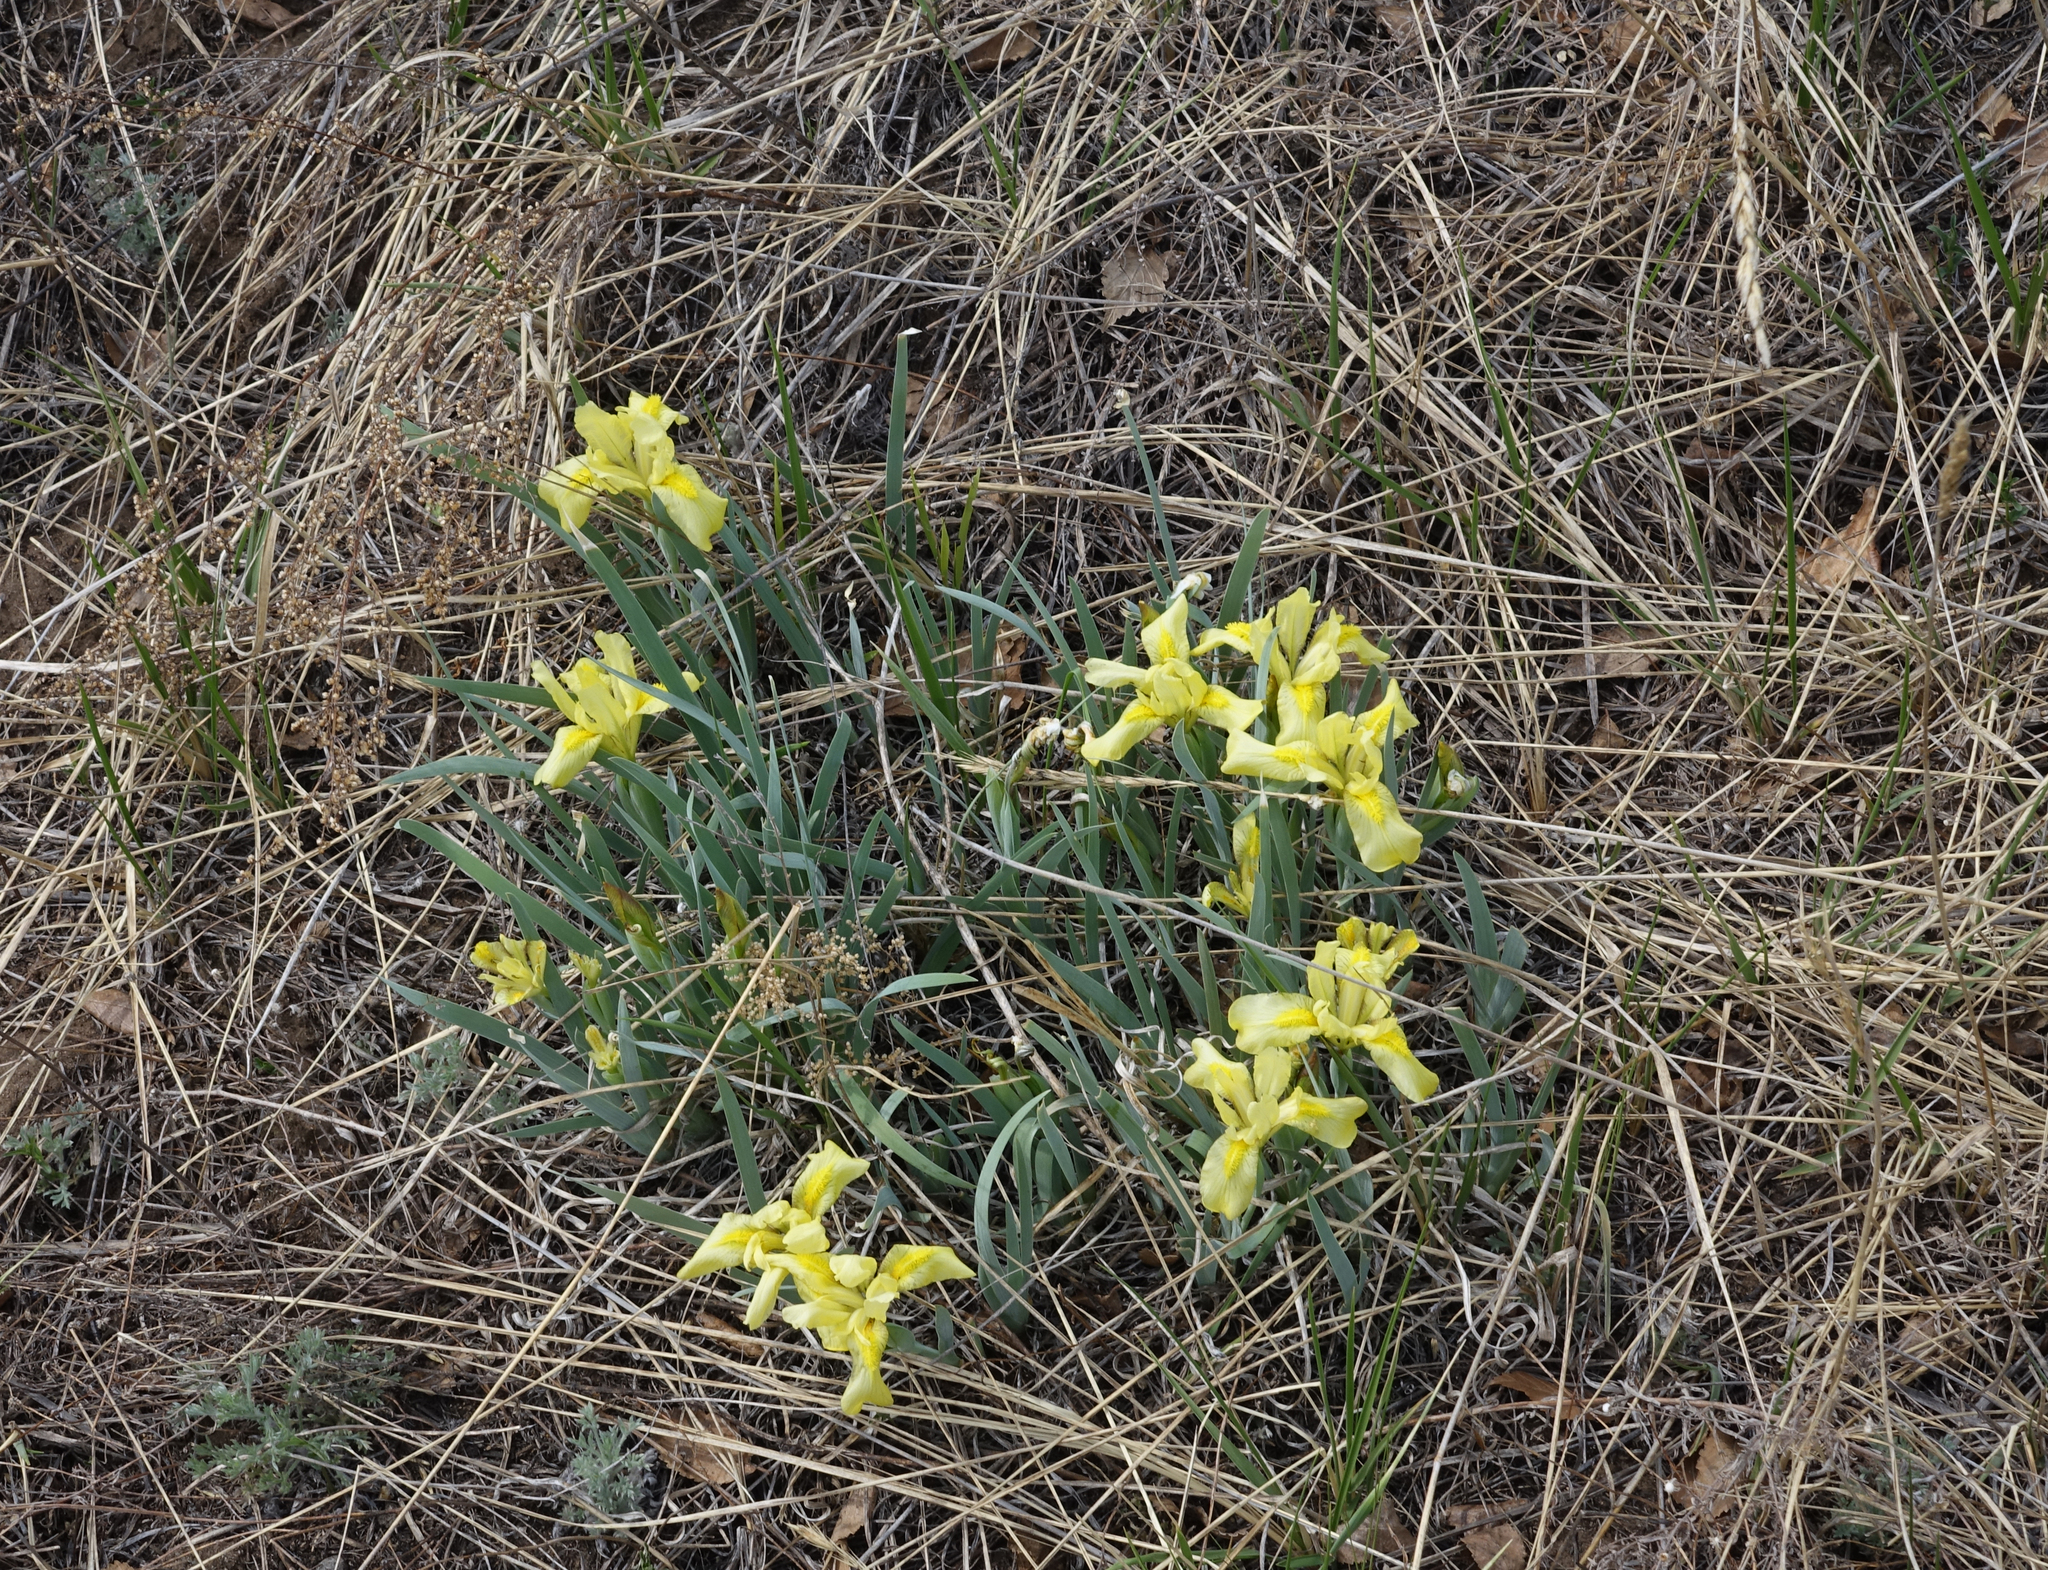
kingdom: Plantae
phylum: Tracheophyta
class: Liliopsida
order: Asparagales
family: Iridaceae
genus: Iris
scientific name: Iris humilis
